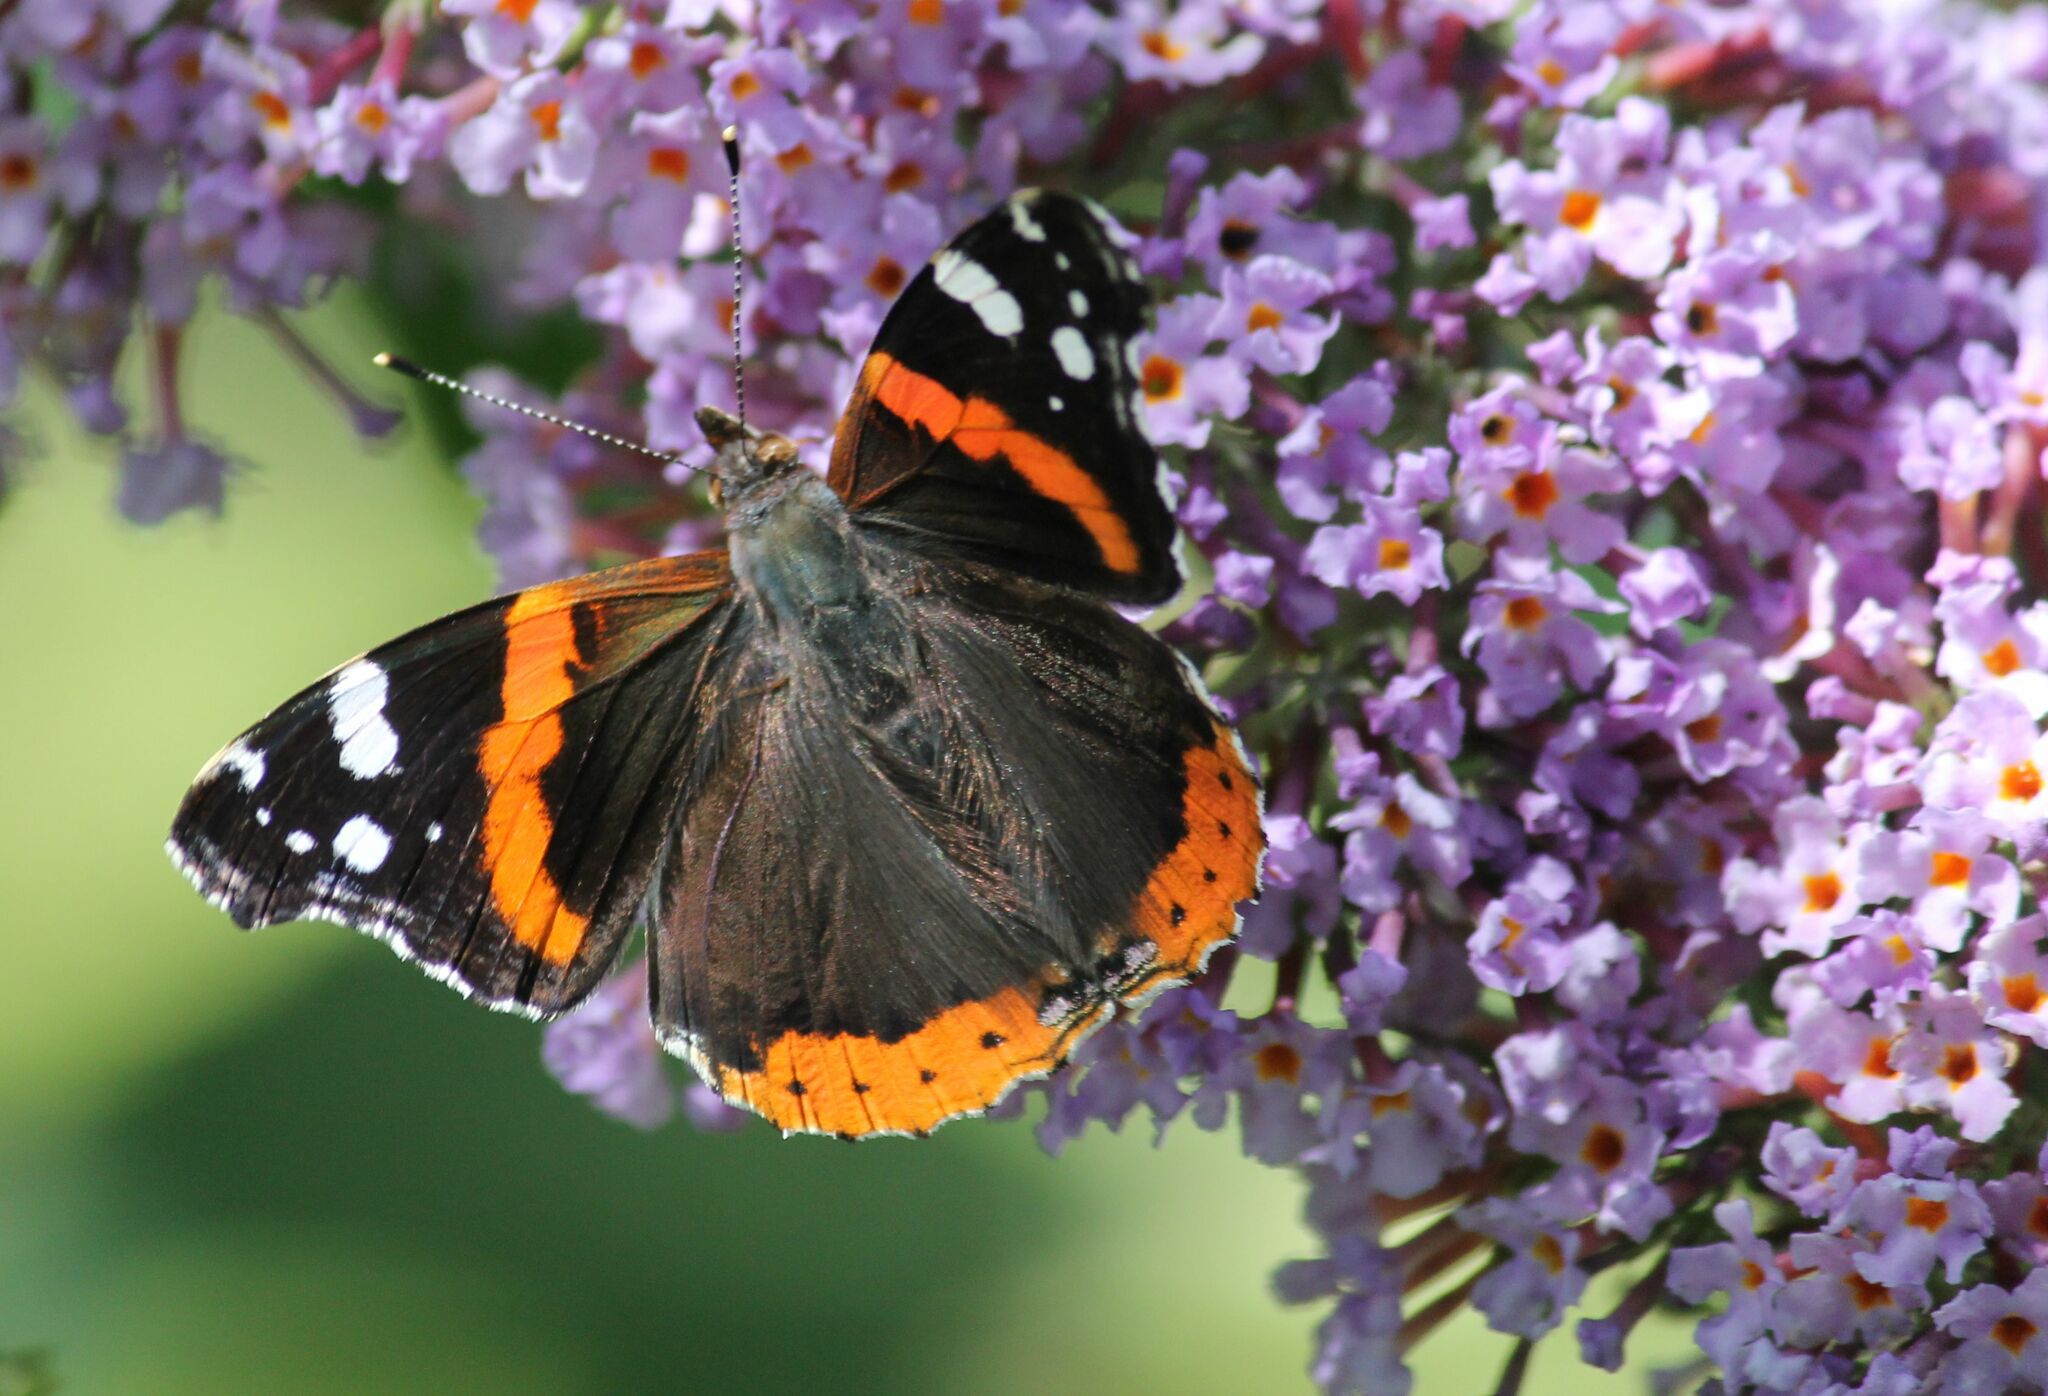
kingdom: Animalia
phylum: Arthropoda
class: Insecta
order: Lepidoptera
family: Nymphalidae
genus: Vanessa
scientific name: Vanessa atalanta
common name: Red admiral
